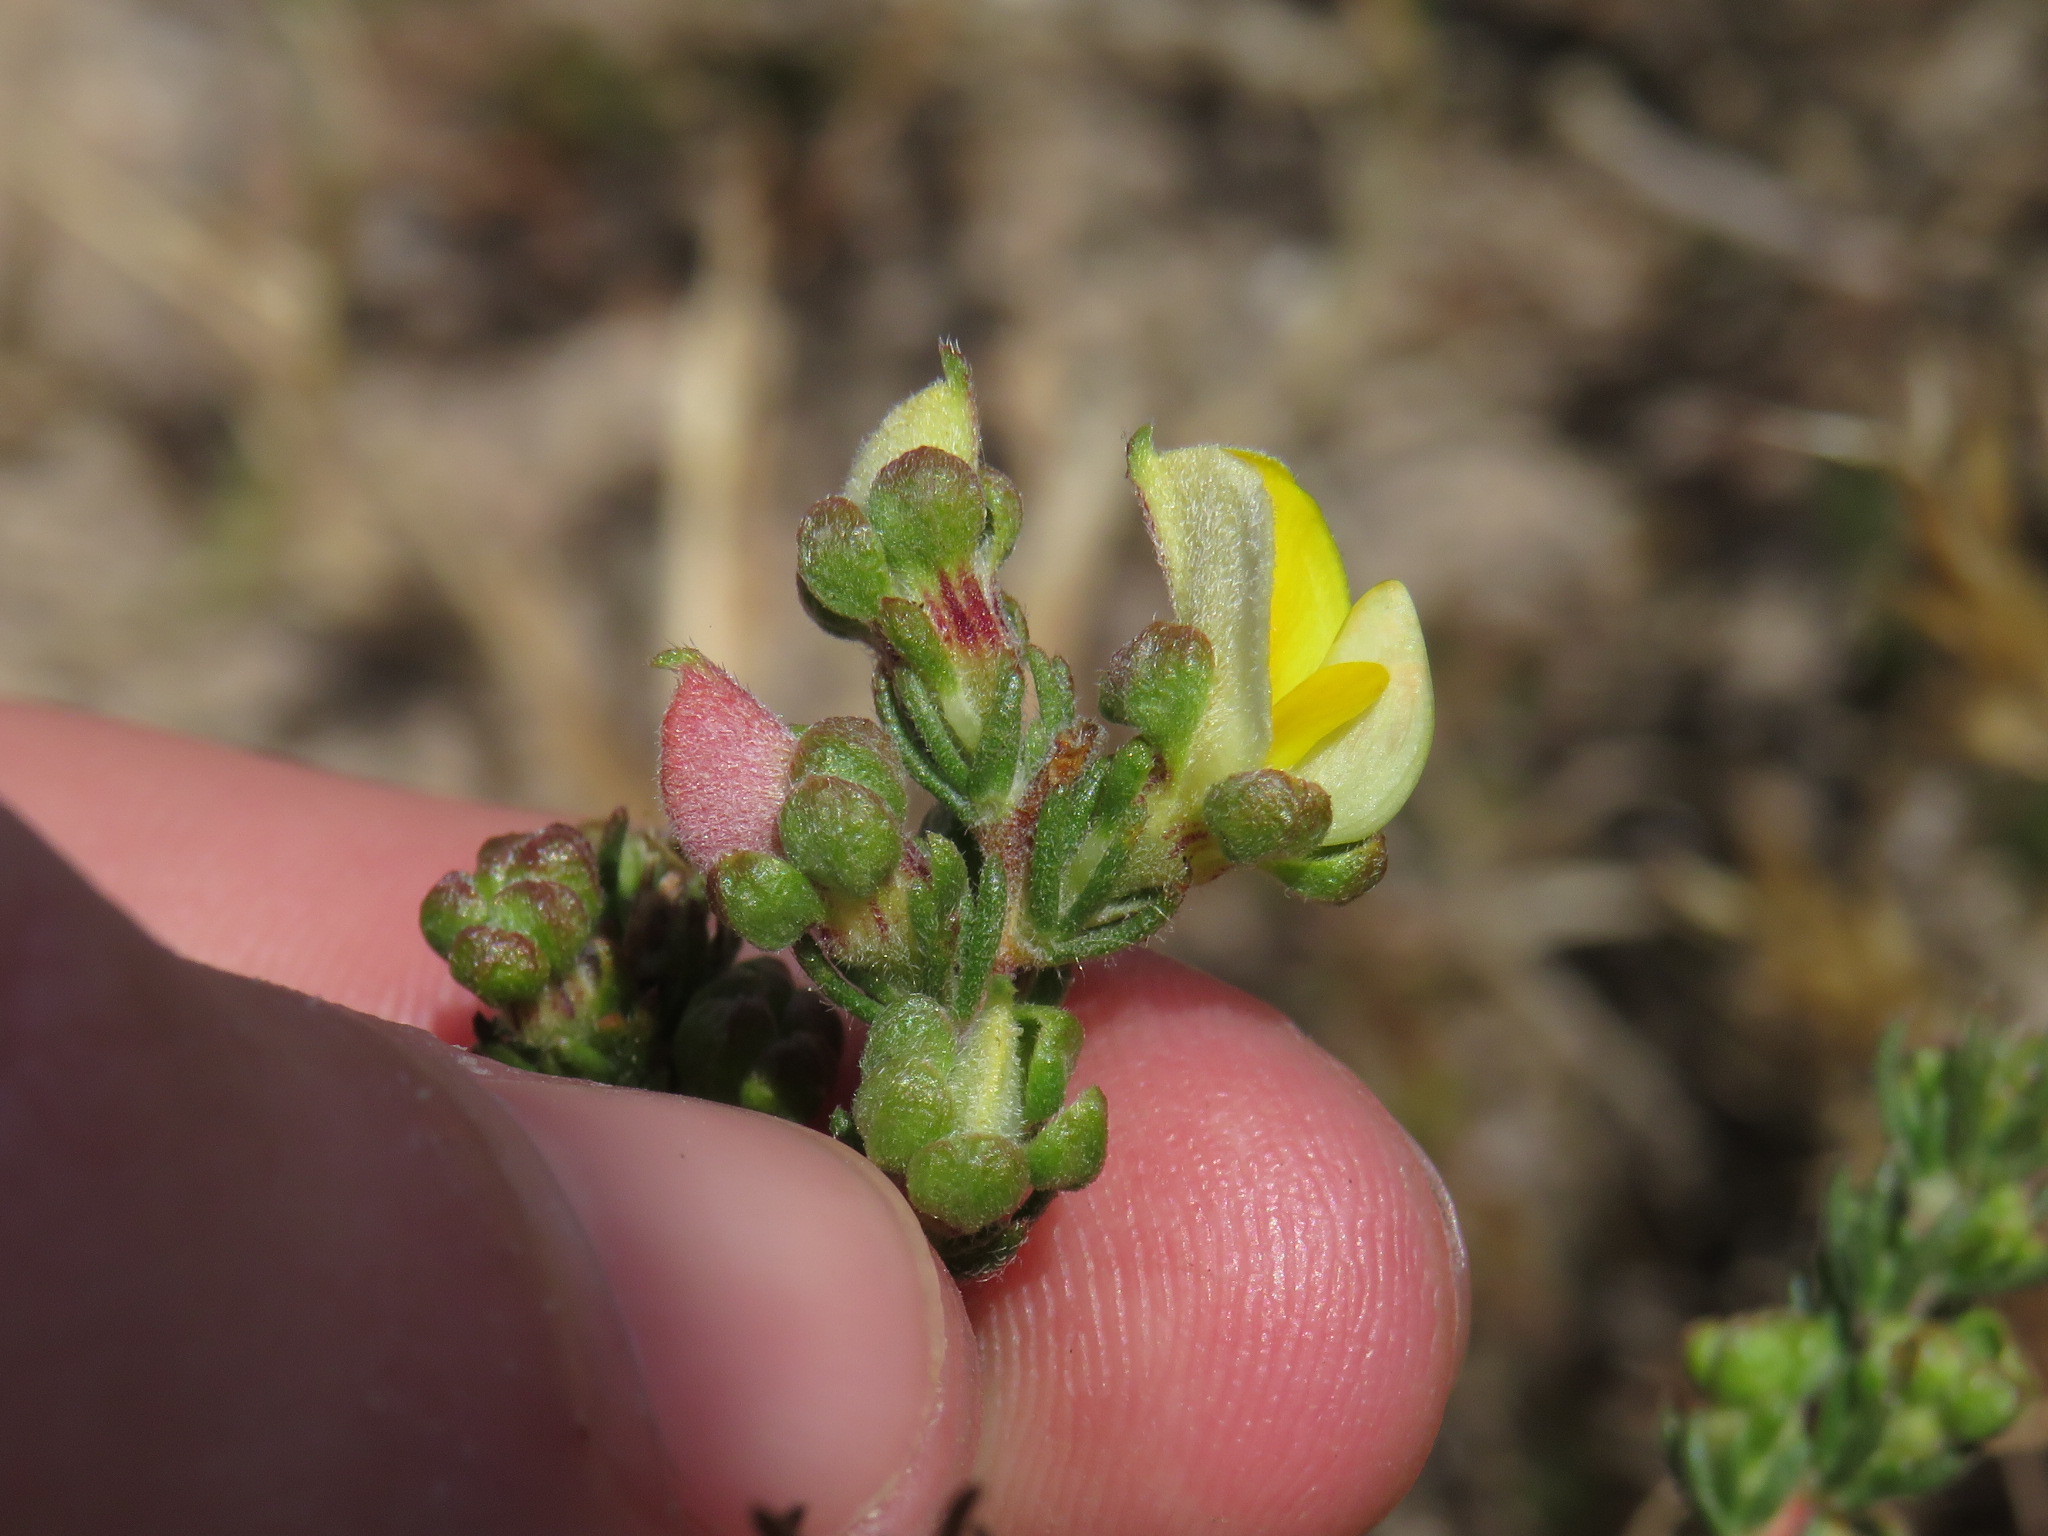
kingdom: Plantae
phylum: Tracheophyta
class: Magnoliopsida
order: Fabales
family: Fabaceae
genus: Aspalathus
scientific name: Aspalathus cymbiformis
